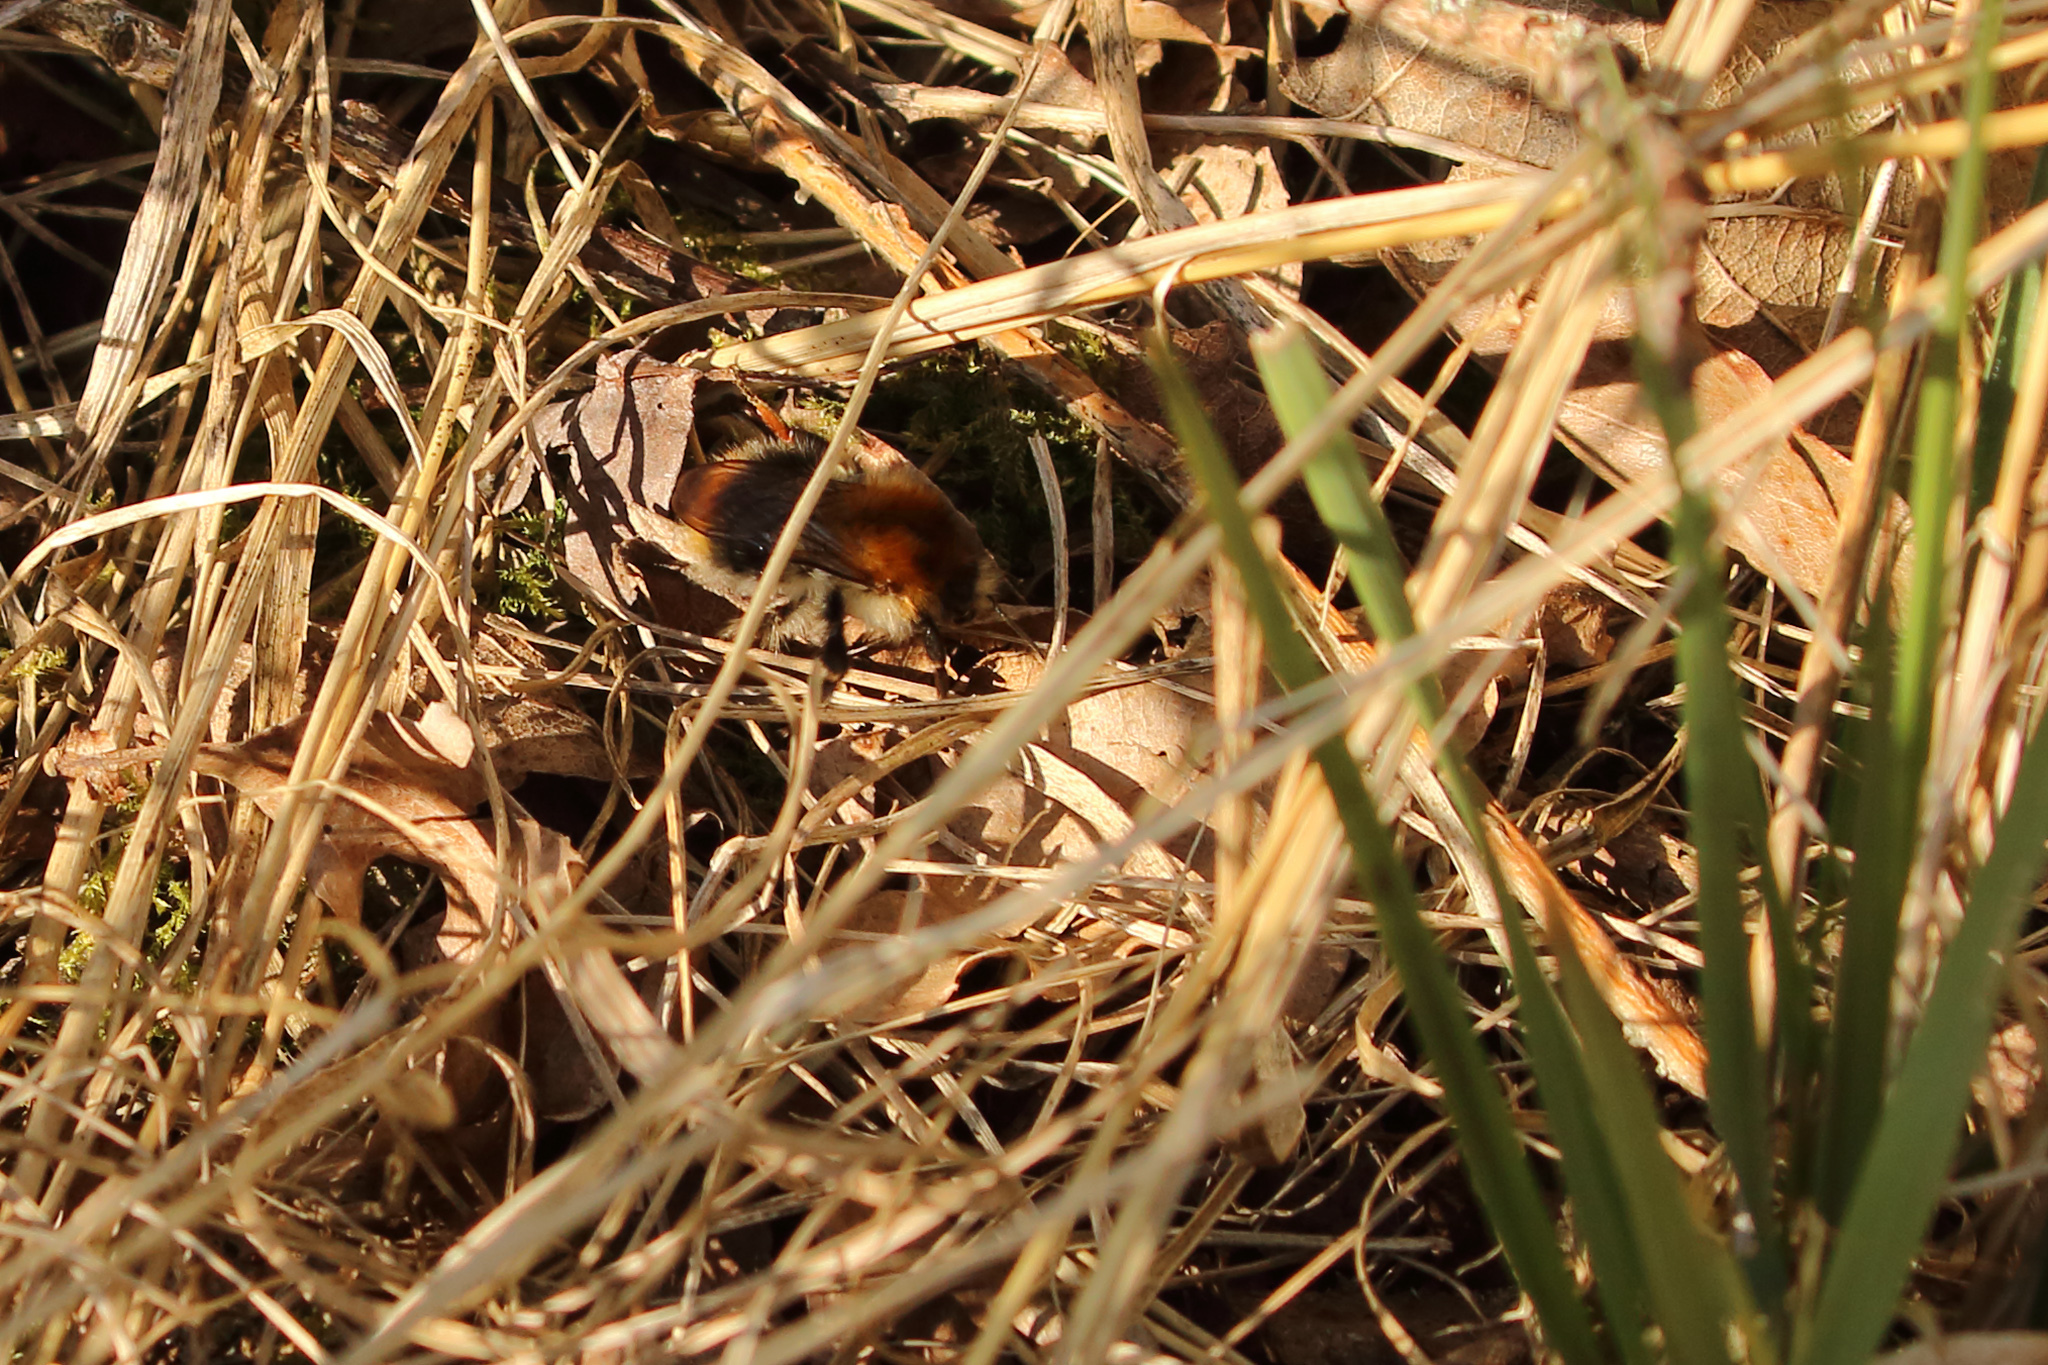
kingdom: Animalia
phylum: Arthropoda
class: Insecta
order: Hymenoptera
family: Apidae
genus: Bombus
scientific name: Bombus pascuorum
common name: Common carder bee
